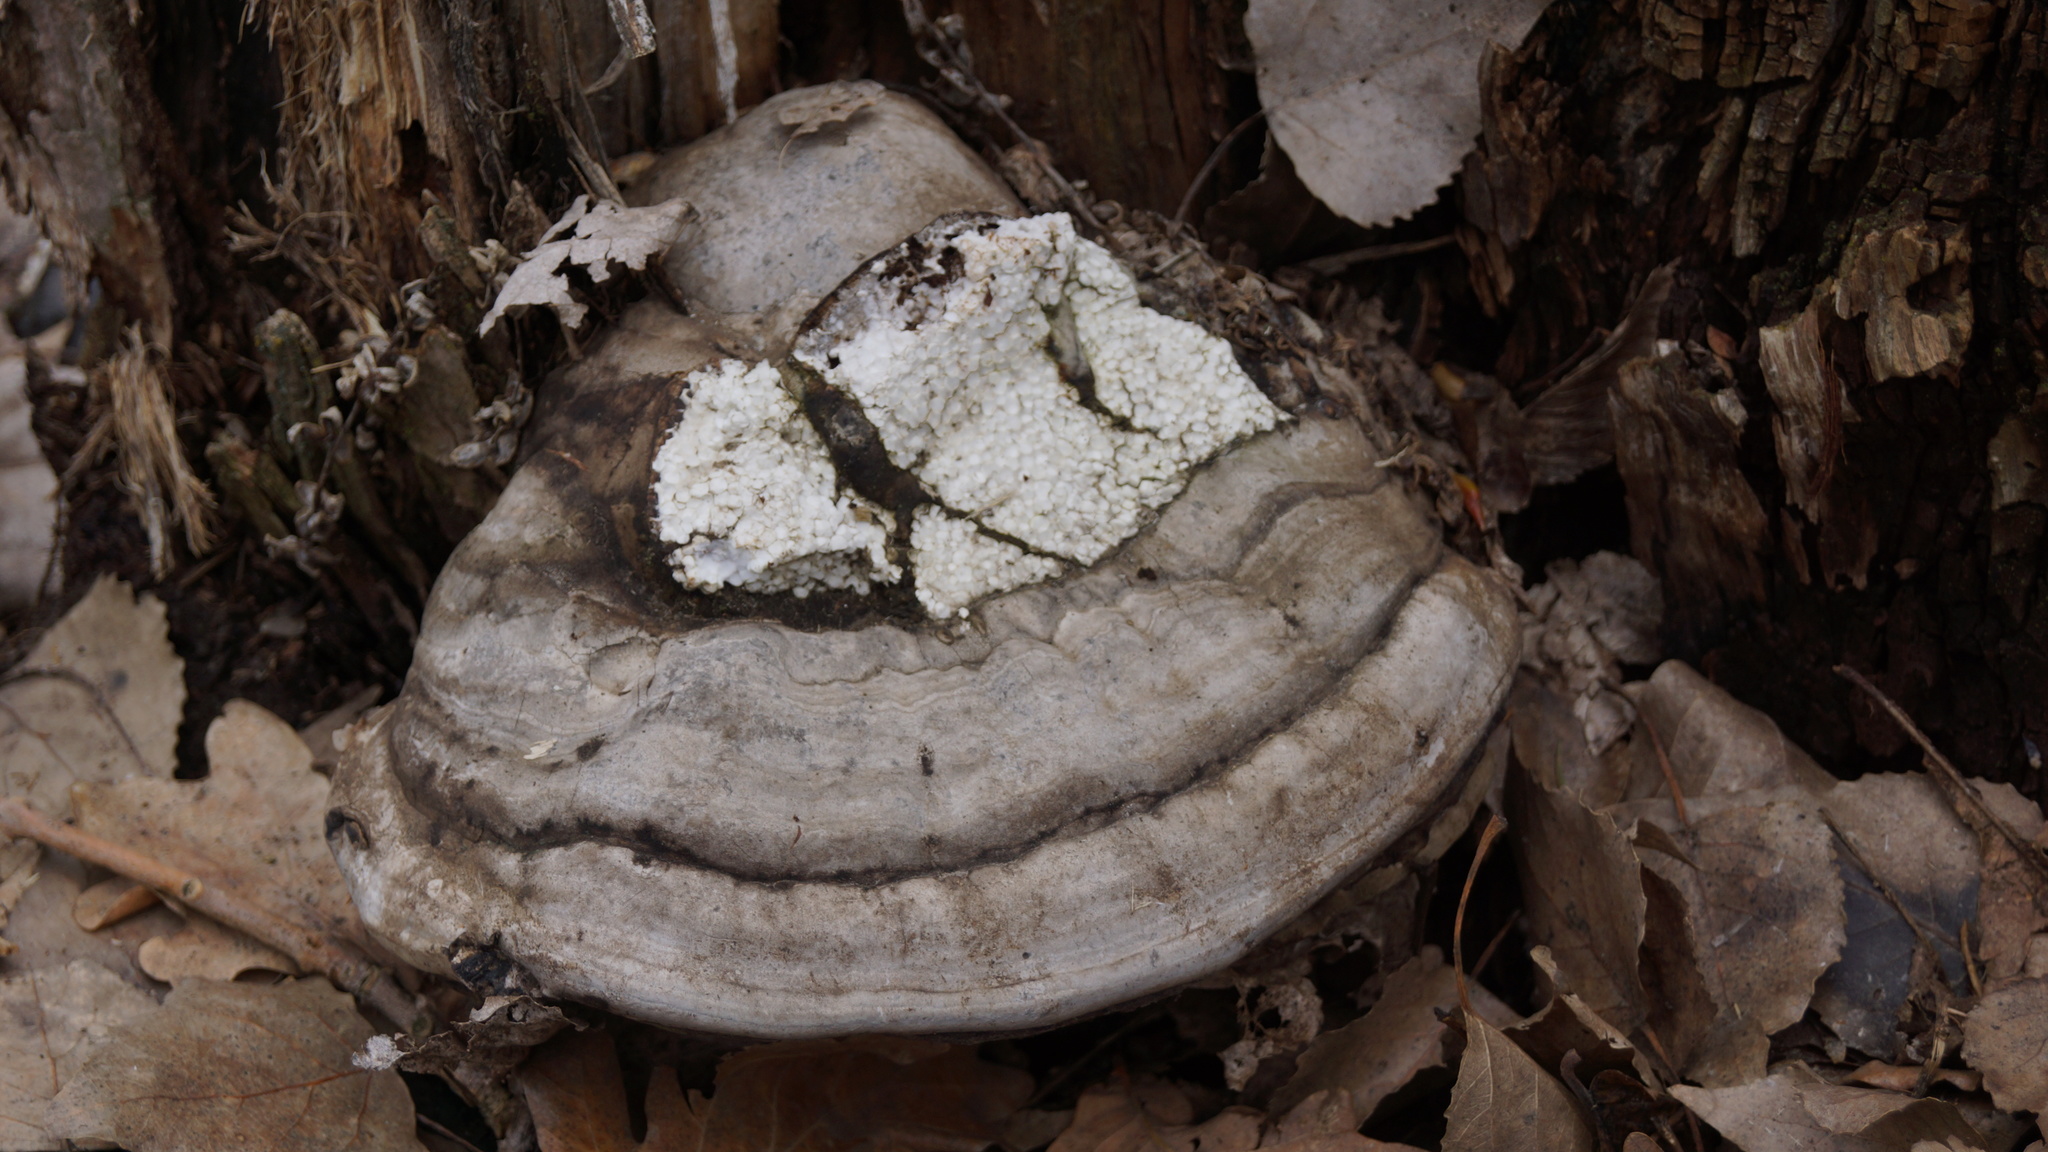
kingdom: Fungi
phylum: Basidiomycota
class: Agaricomycetes
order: Polyporales
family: Polyporaceae
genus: Fomes
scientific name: Fomes fomentarius
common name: Hoof fungus
